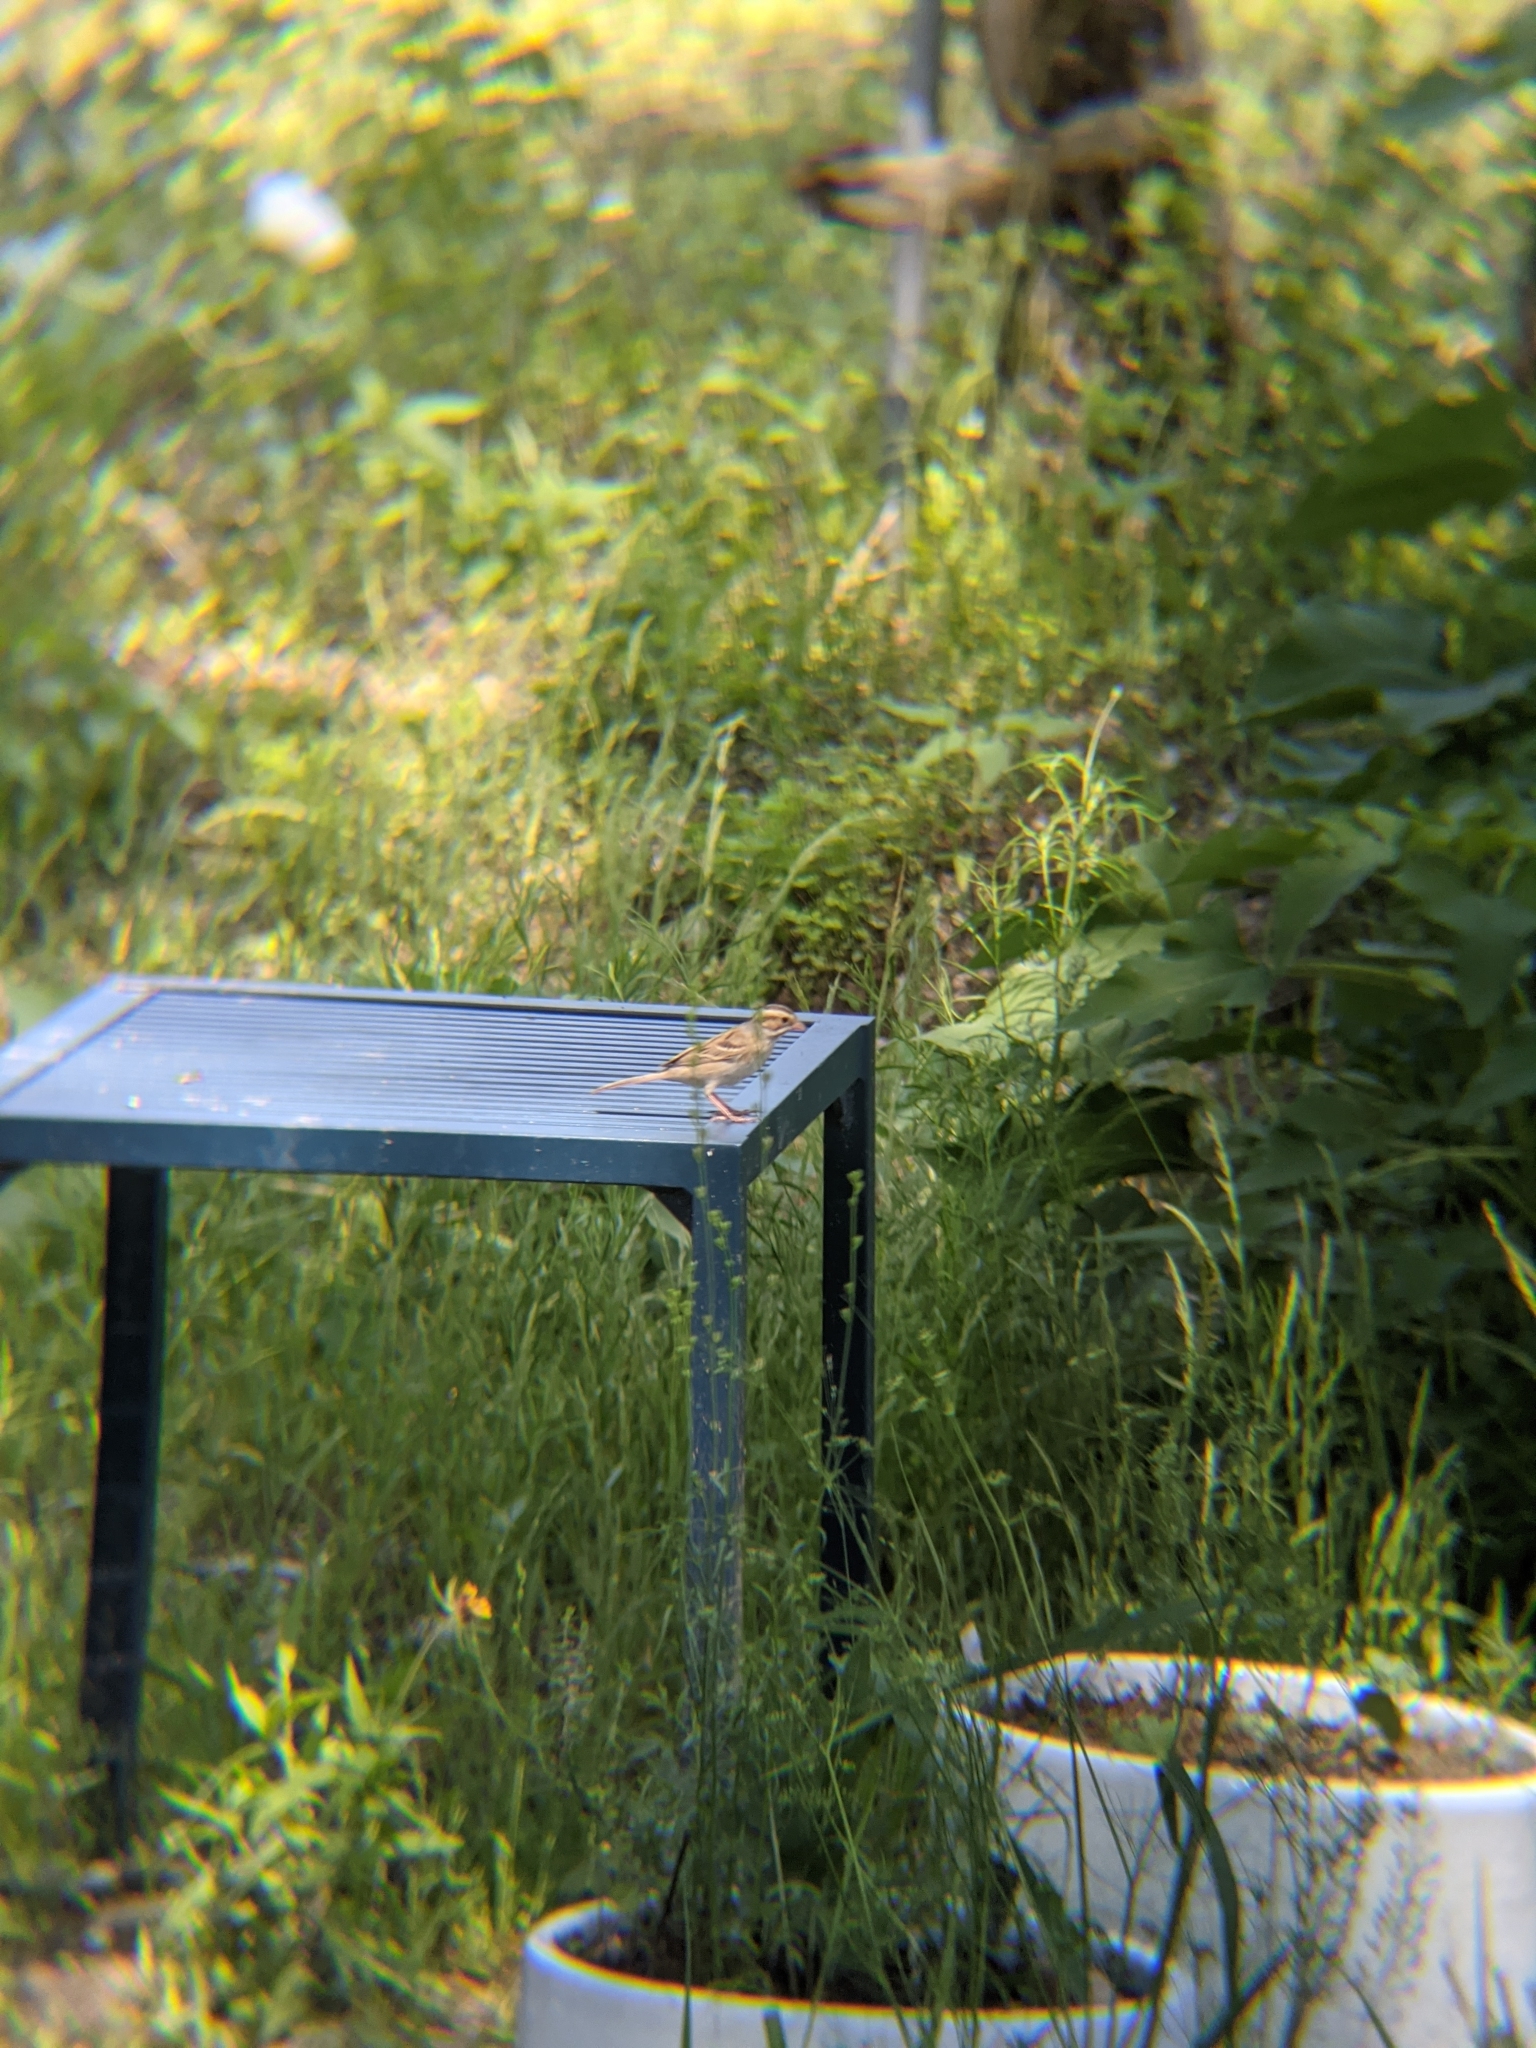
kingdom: Animalia
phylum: Chordata
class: Aves
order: Passeriformes
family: Passerellidae
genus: Spizella
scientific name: Spizella pallida
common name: Clay-colored sparrow
